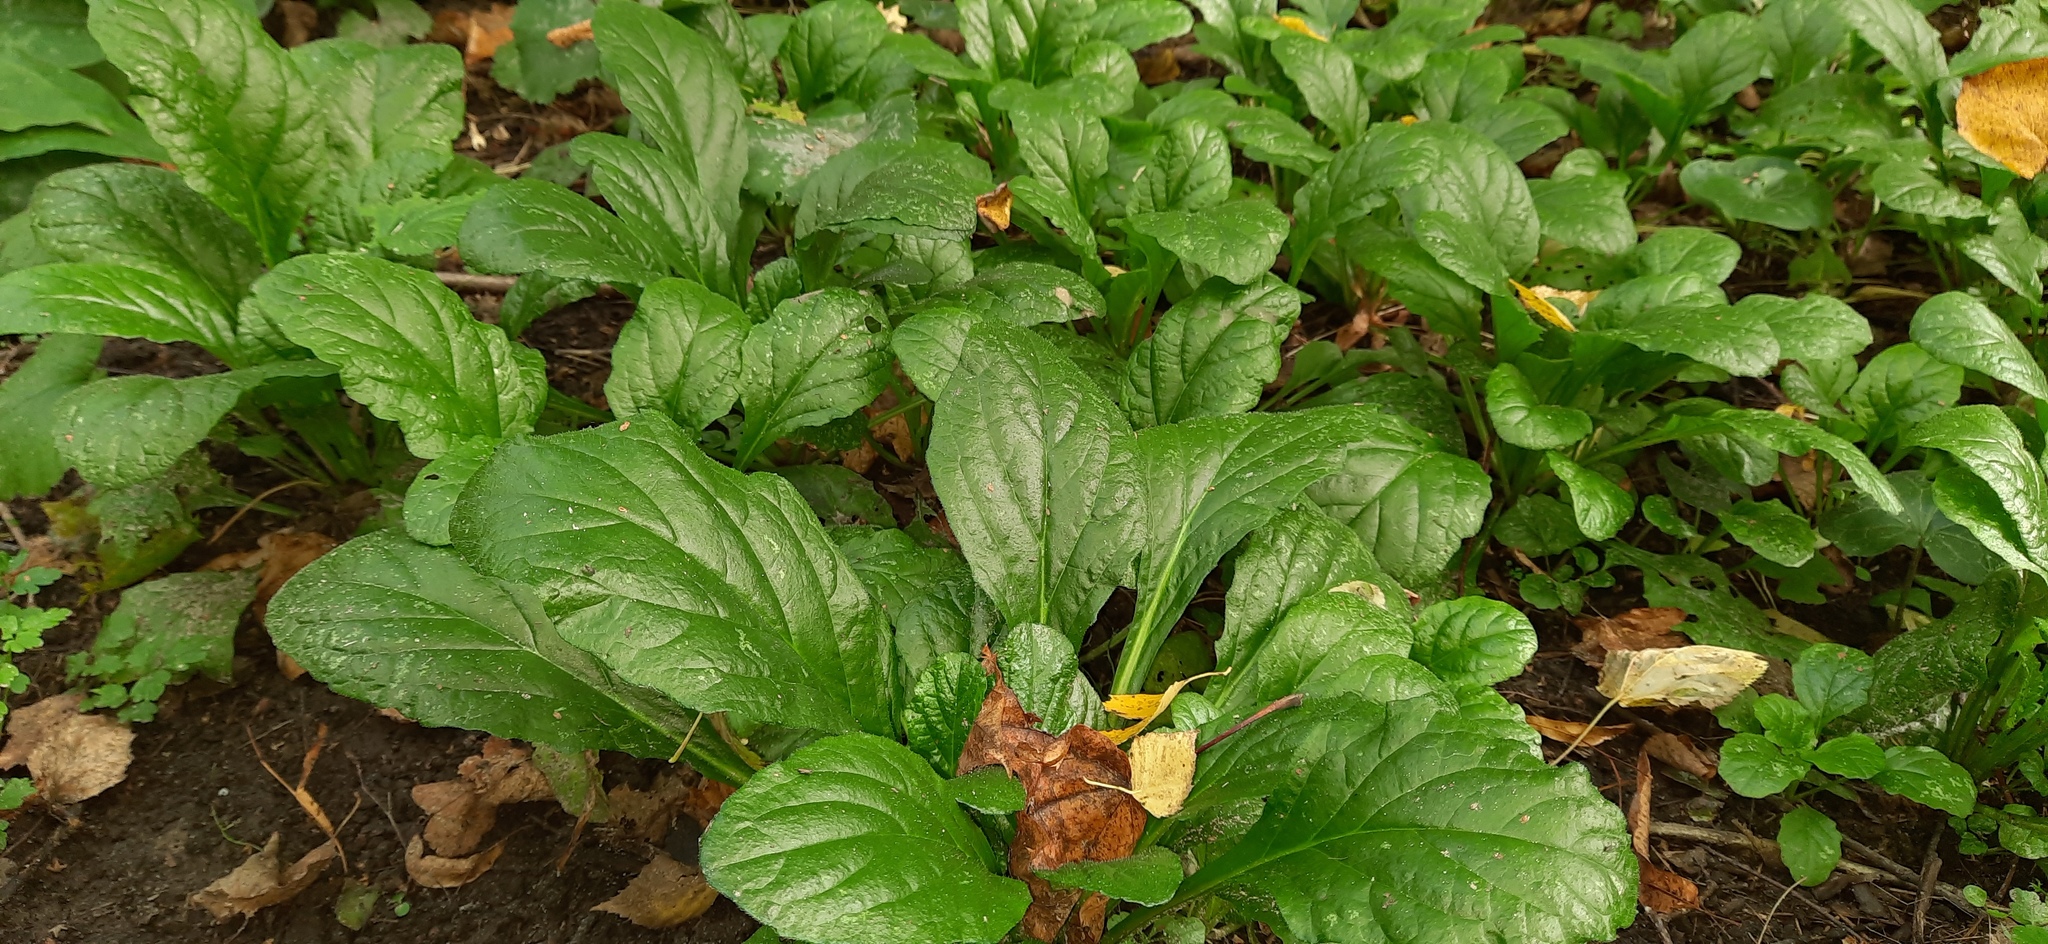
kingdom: Plantae
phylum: Tracheophyta
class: Magnoliopsida
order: Lamiales
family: Lamiaceae
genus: Ajuga
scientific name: Ajuga reptans
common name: Bugle
